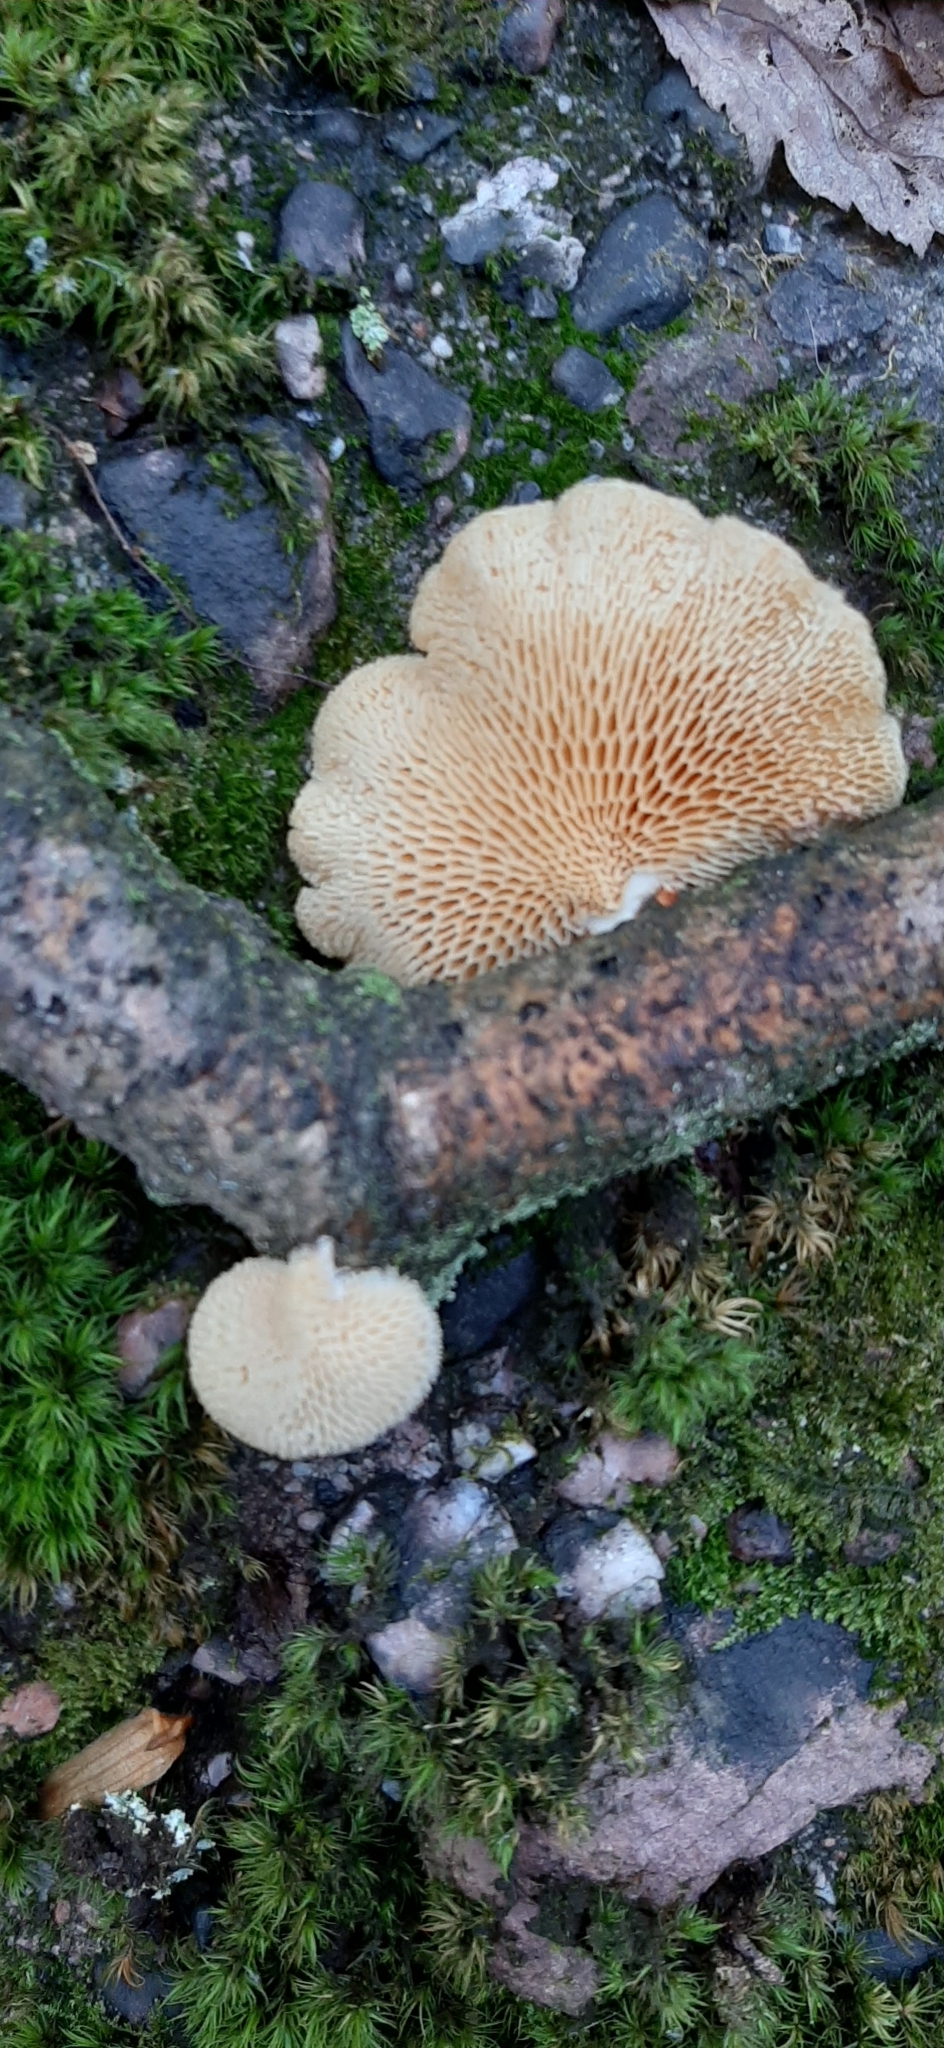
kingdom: Fungi
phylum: Basidiomycota
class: Agaricomycetes
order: Polyporales
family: Polyporaceae
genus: Neofavolus
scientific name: Neofavolus alveolaris
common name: Hexagonal-pored polypore
